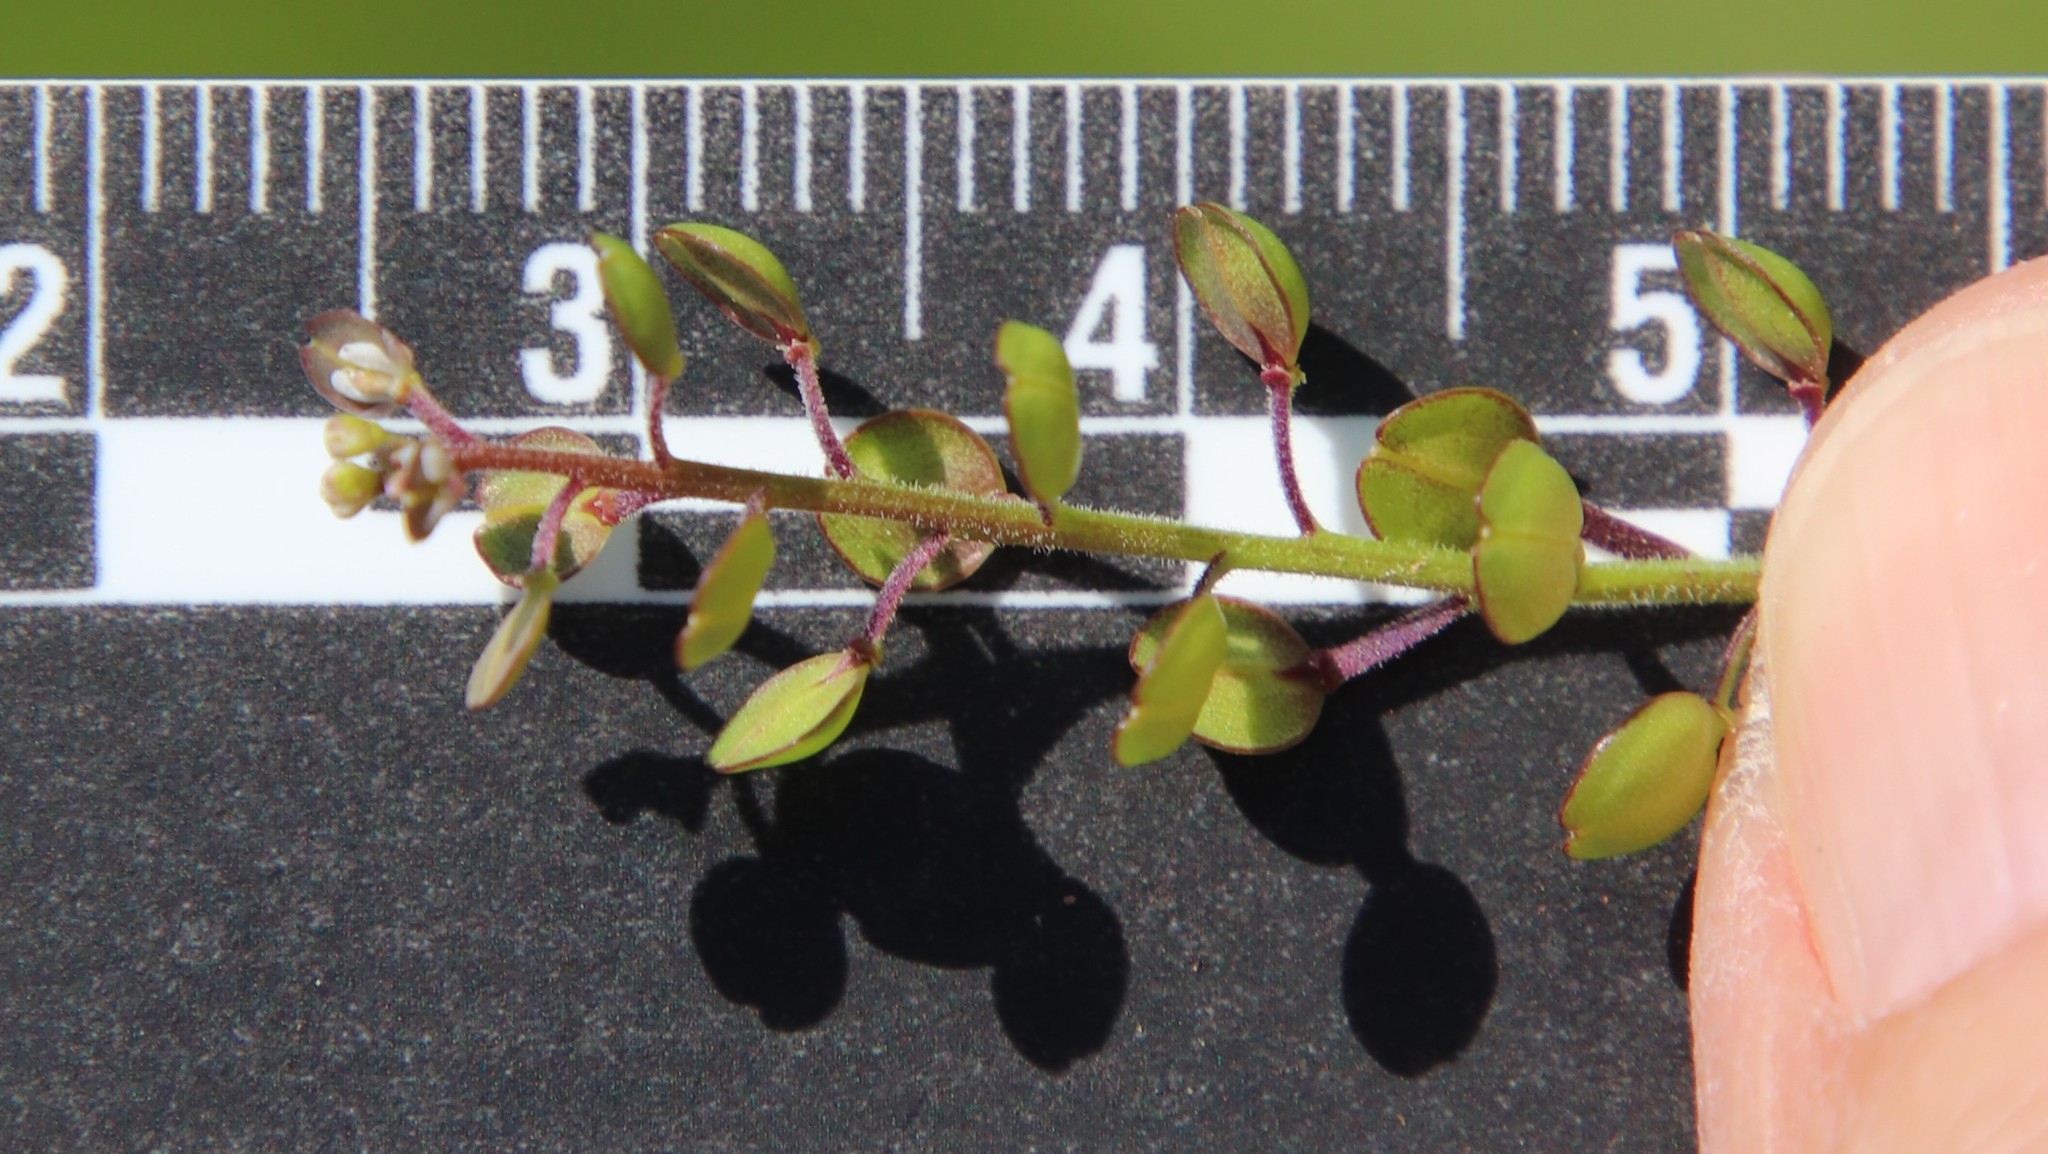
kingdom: Plantae
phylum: Tracheophyta
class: Magnoliopsida
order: Brassicales
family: Brassicaceae
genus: Lepidium
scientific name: Lepidium nitidum
